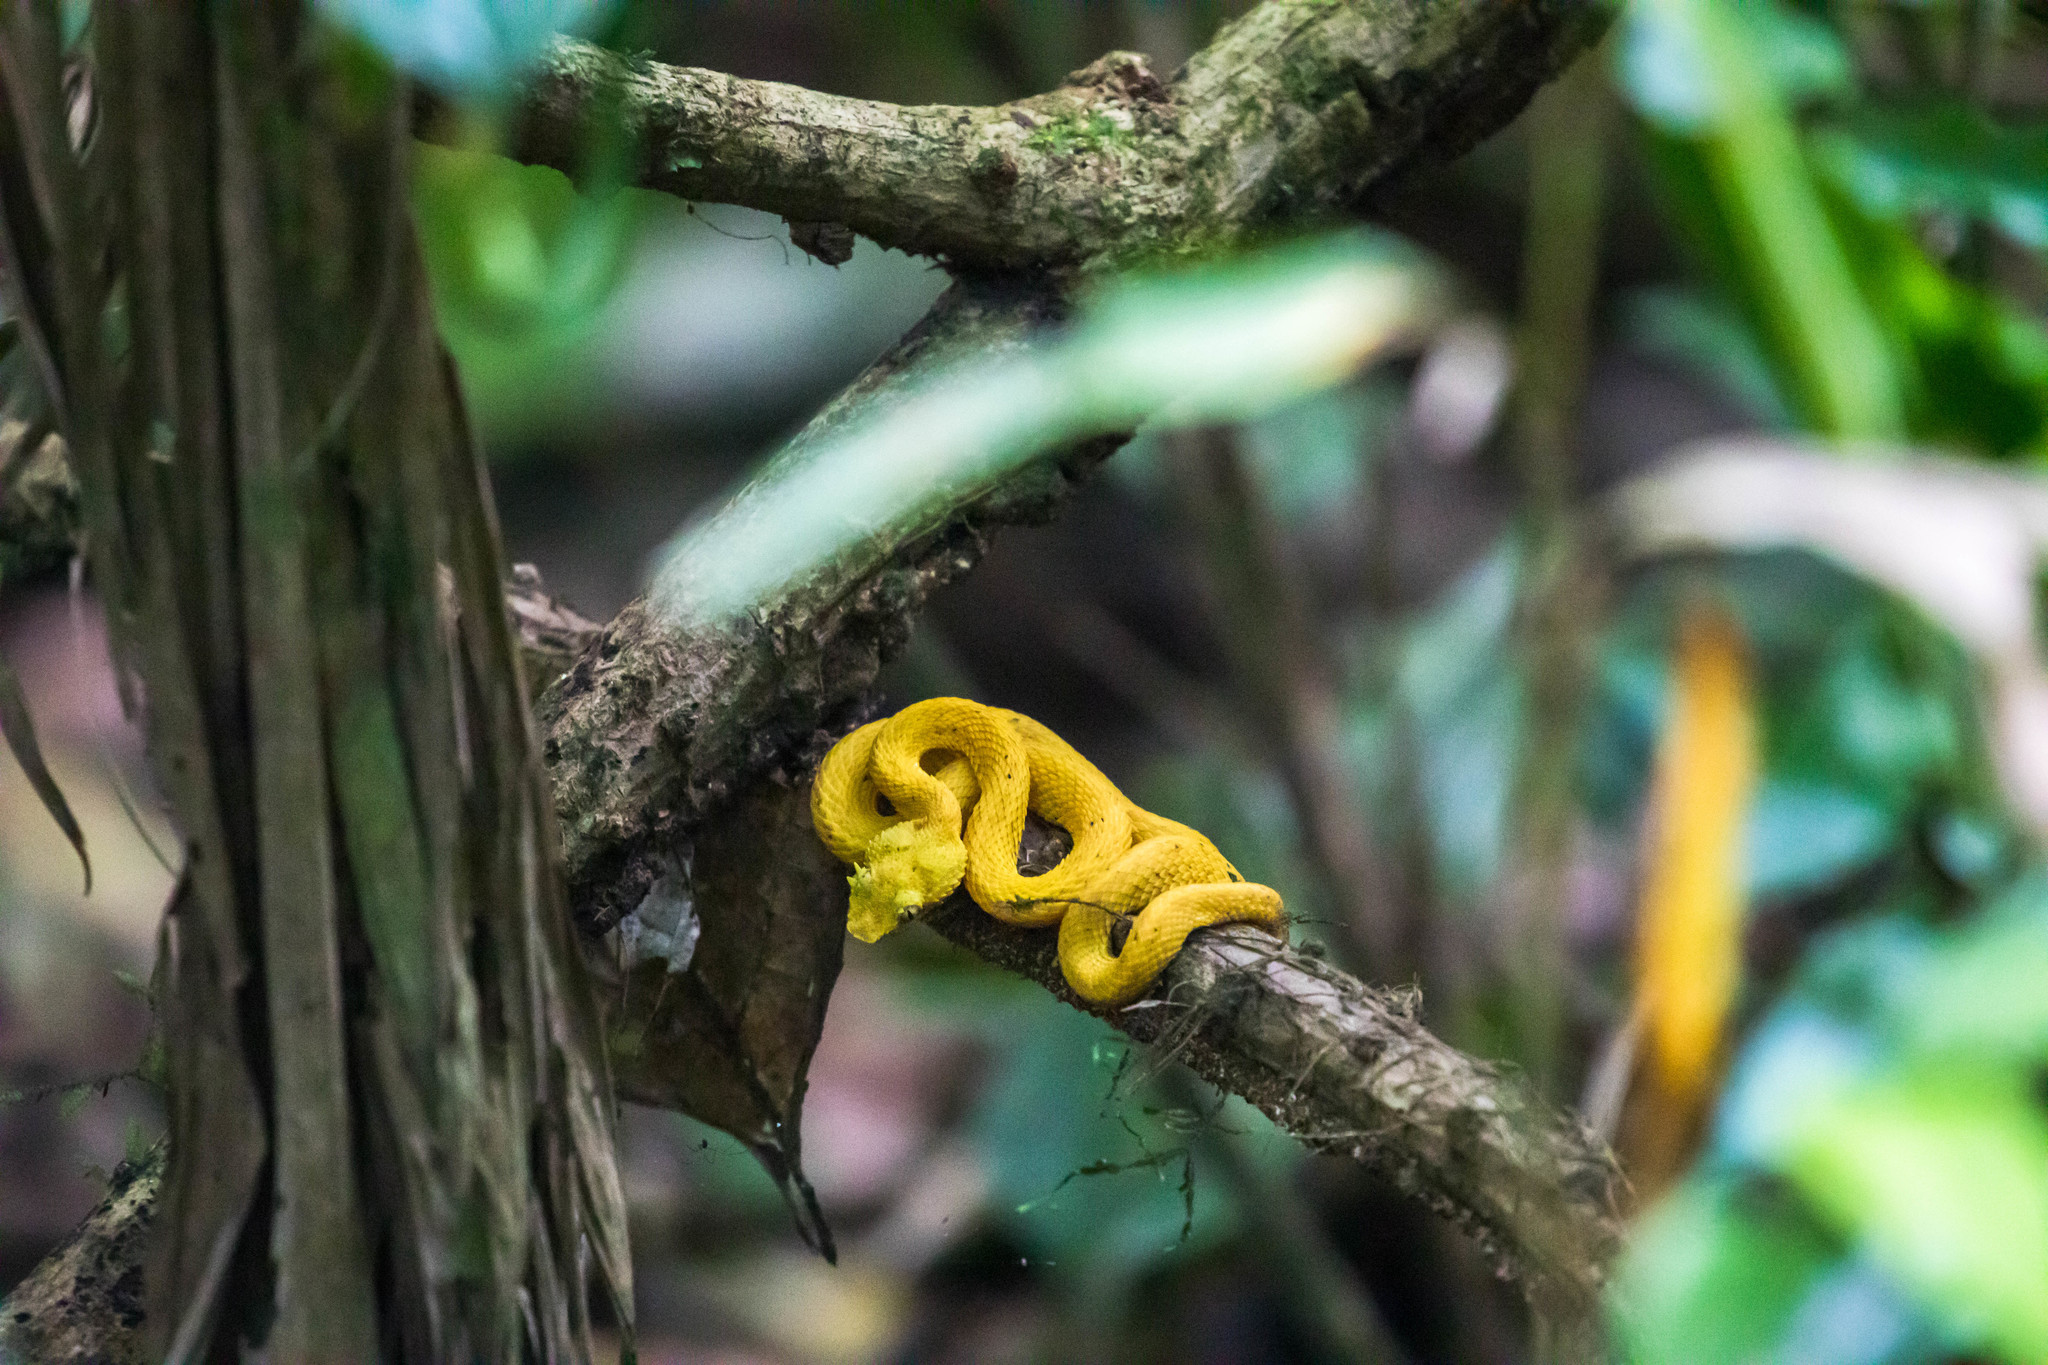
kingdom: Animalia
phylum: Chordata
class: Squamata
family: Viperidae
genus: Bothriechis
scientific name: Bothriechis schlegelii
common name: Eyelash viper
